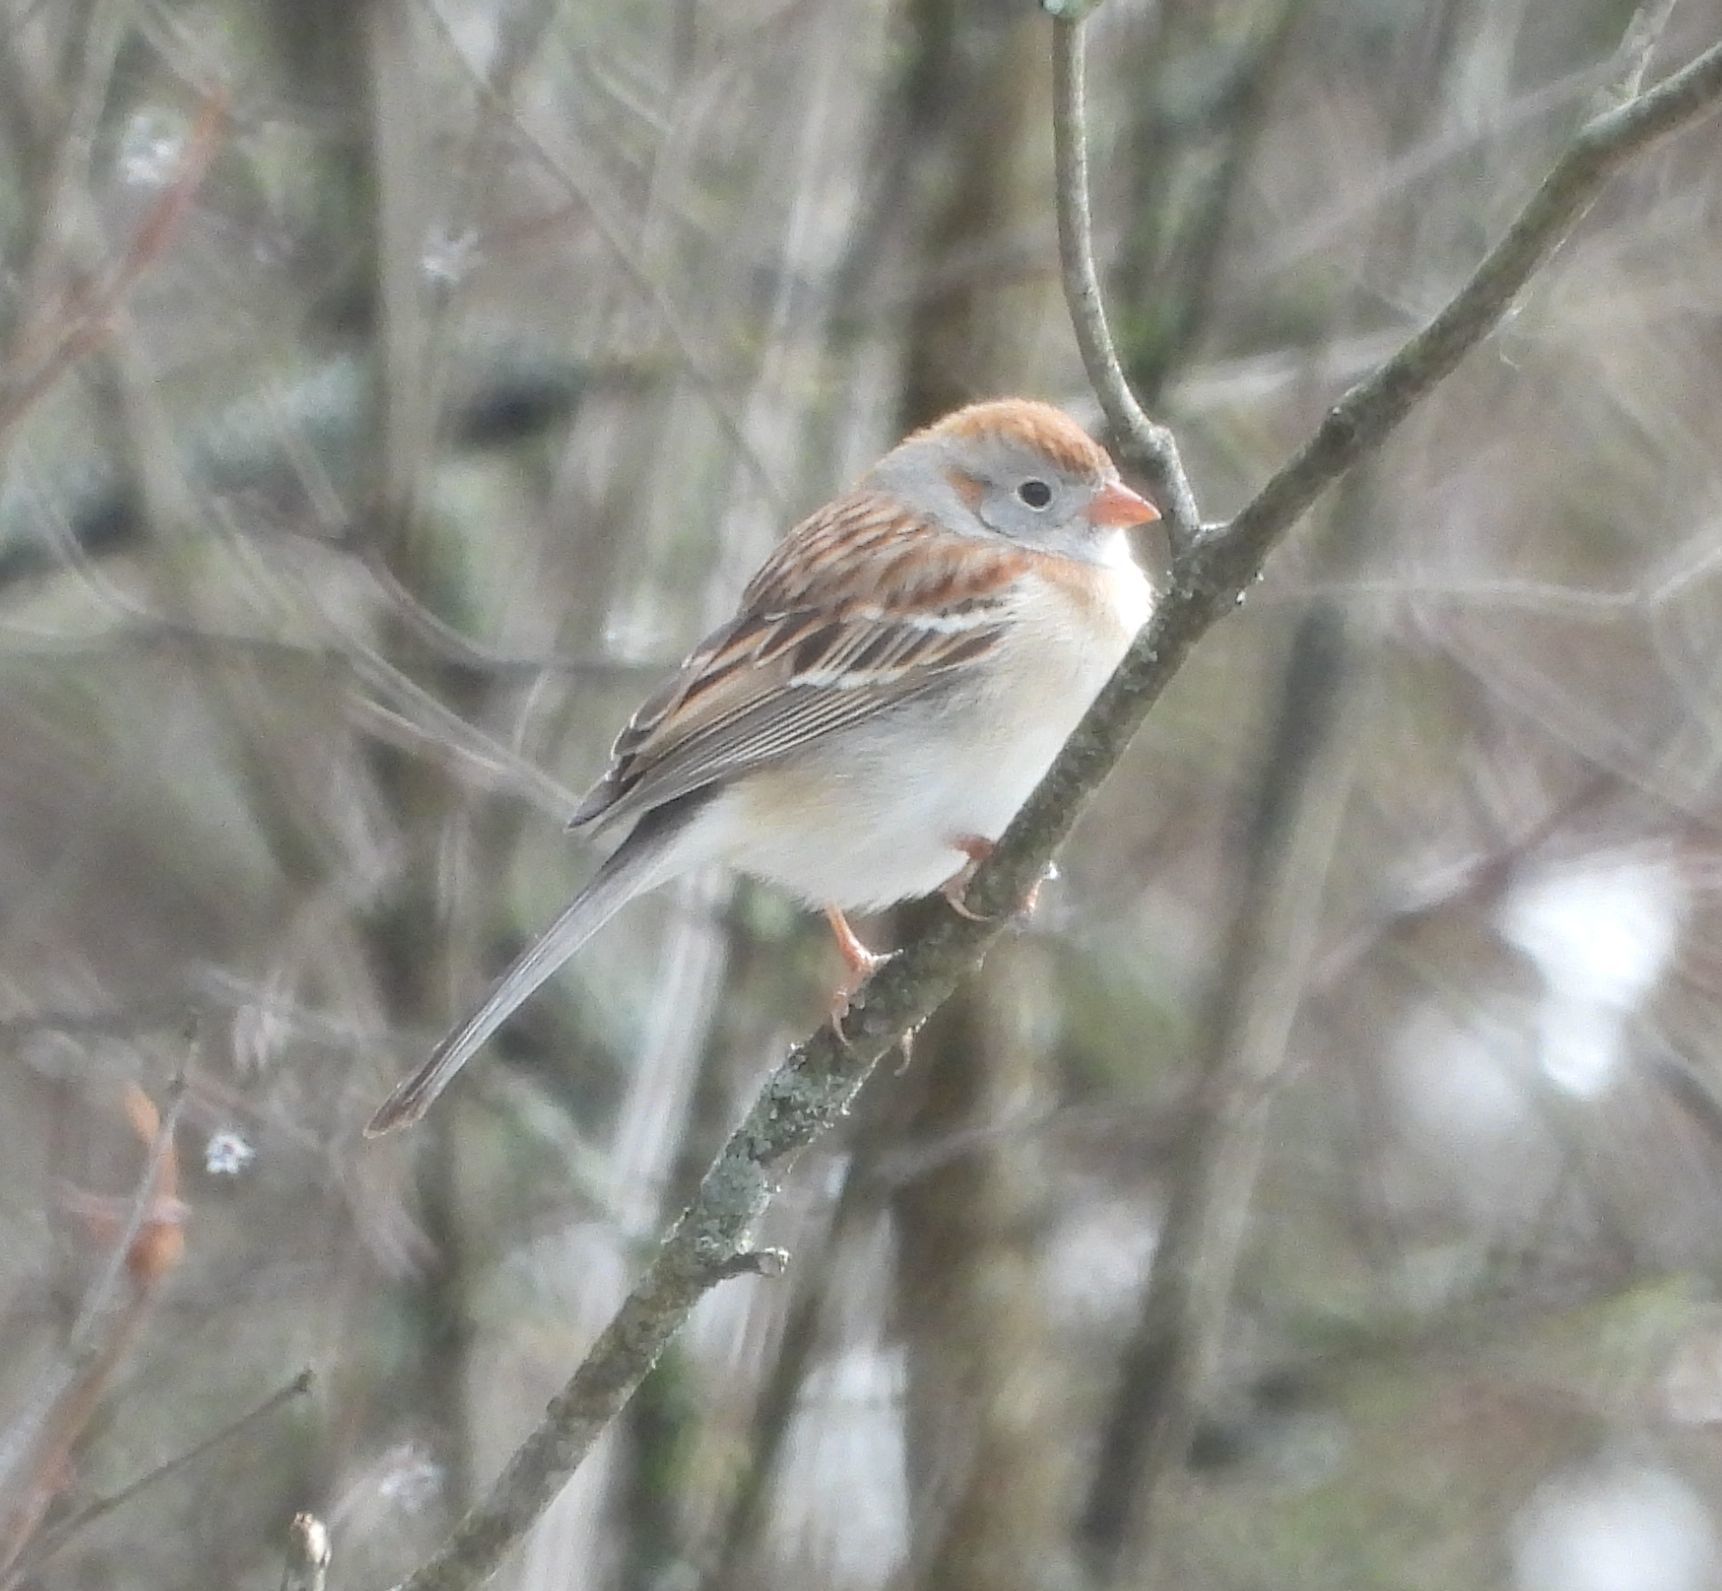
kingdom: Animalia
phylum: Chordata
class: Aves
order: Passeriformes
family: Passerellidae
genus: Spizella
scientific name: Spizella pusilla
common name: Field sparrow
